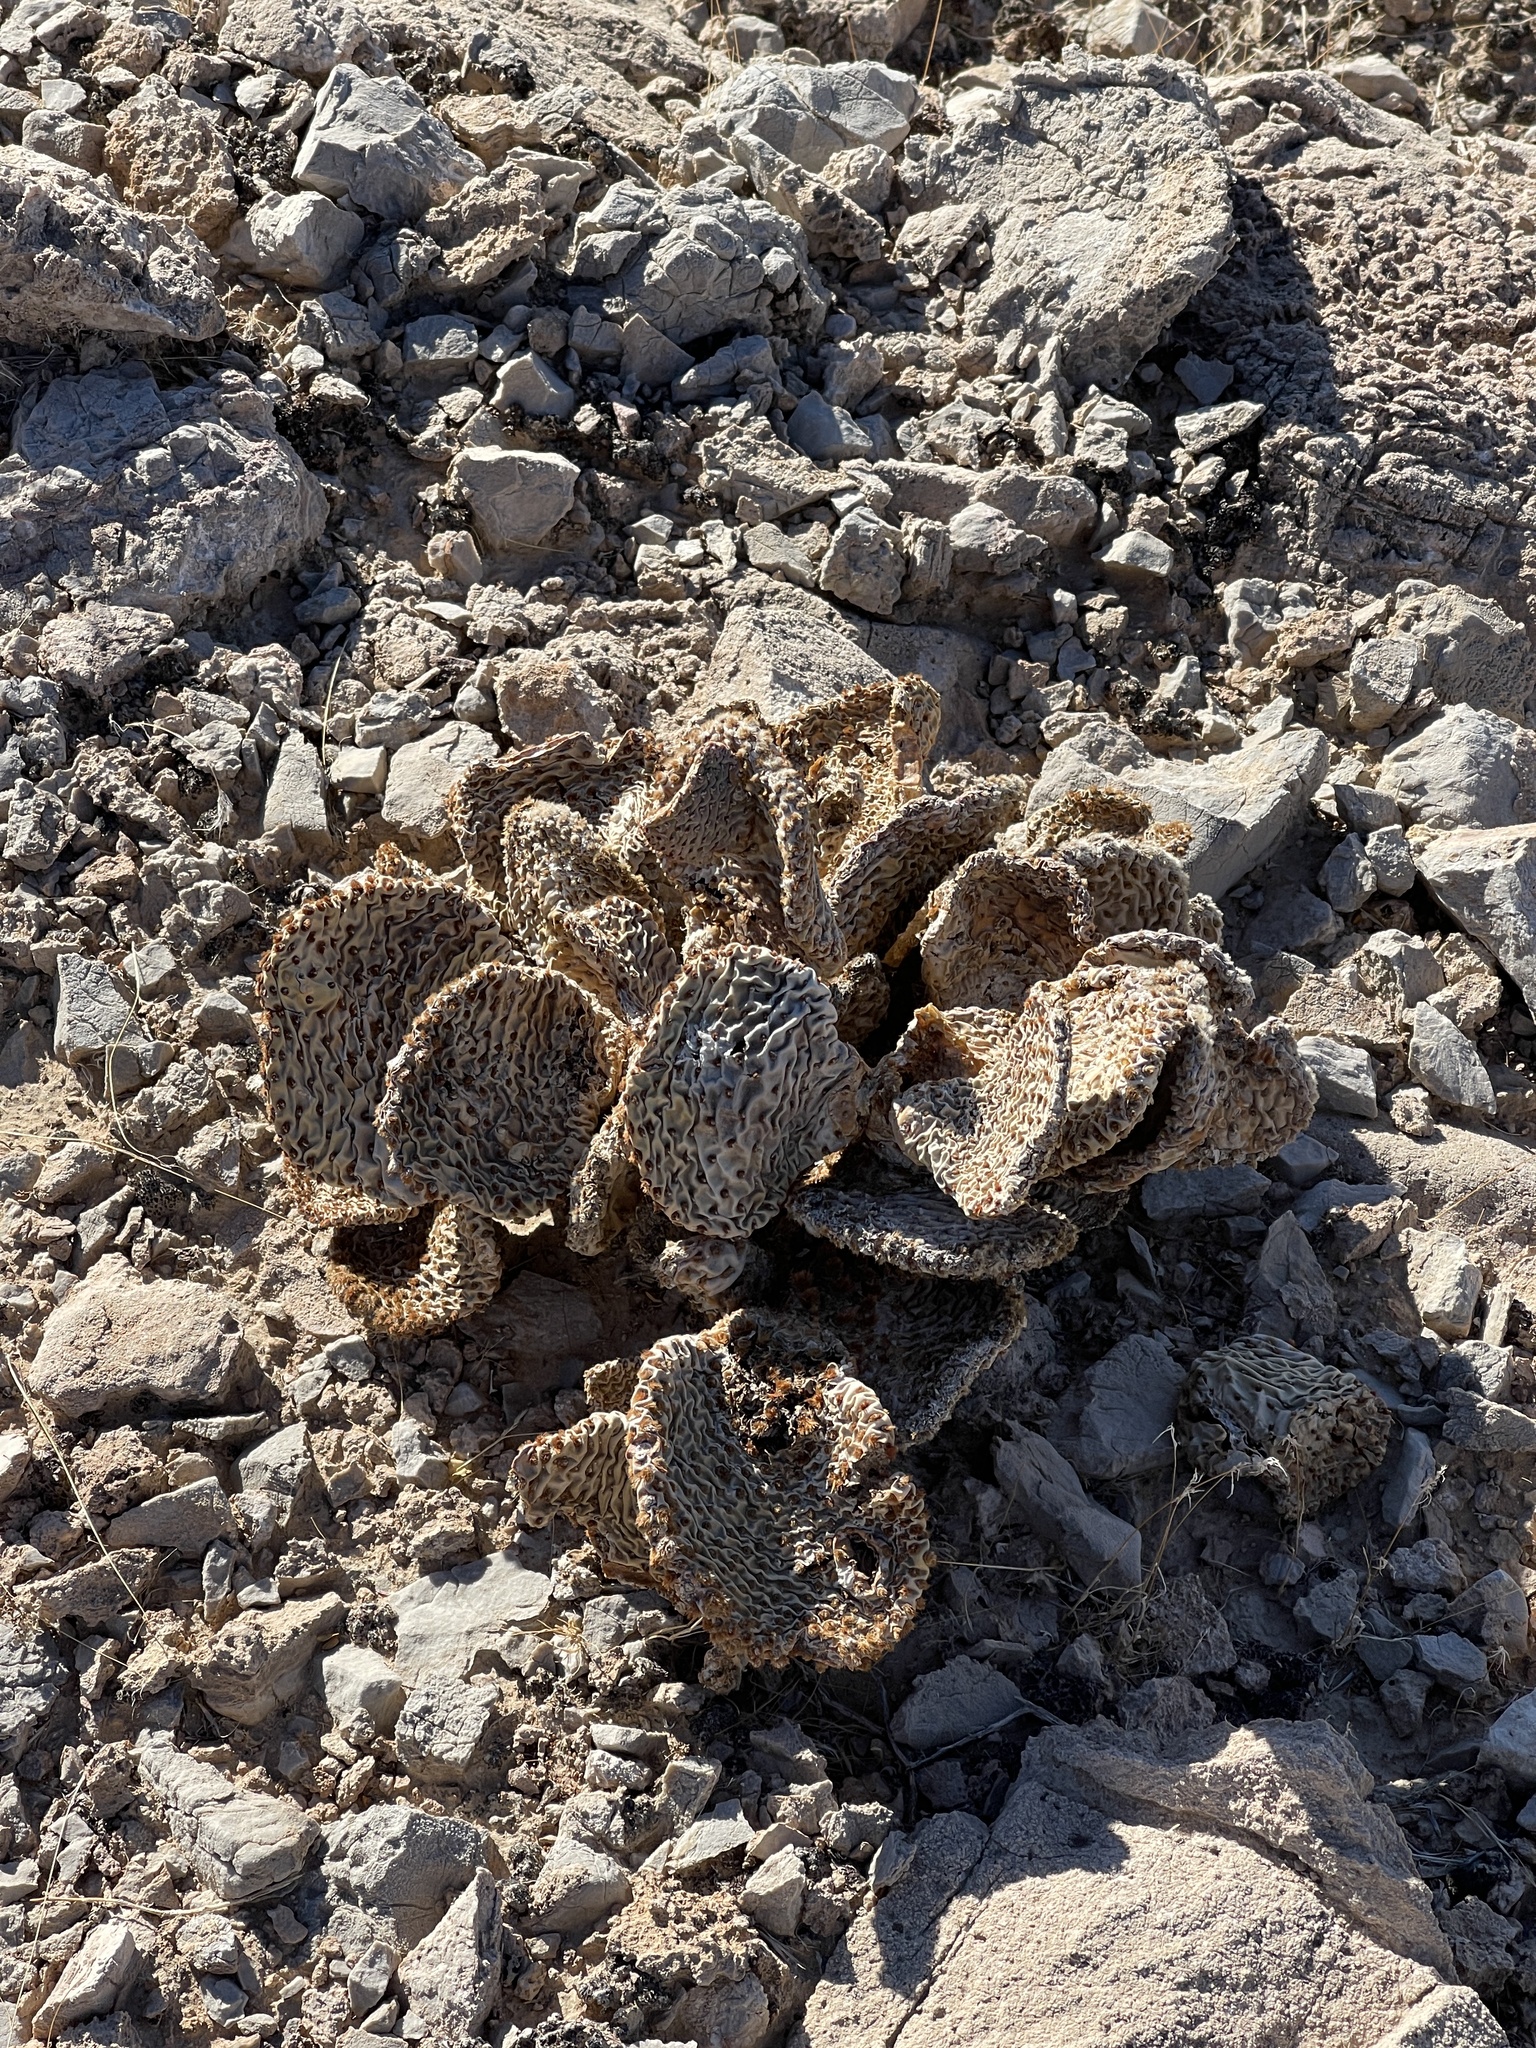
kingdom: Plantae
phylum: Tracheophyta
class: Magnoliopsida
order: Caryophyllales
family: Cactaceae
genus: Opuntia
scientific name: Opuntia basilaris
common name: Beavertail prickly-pear
